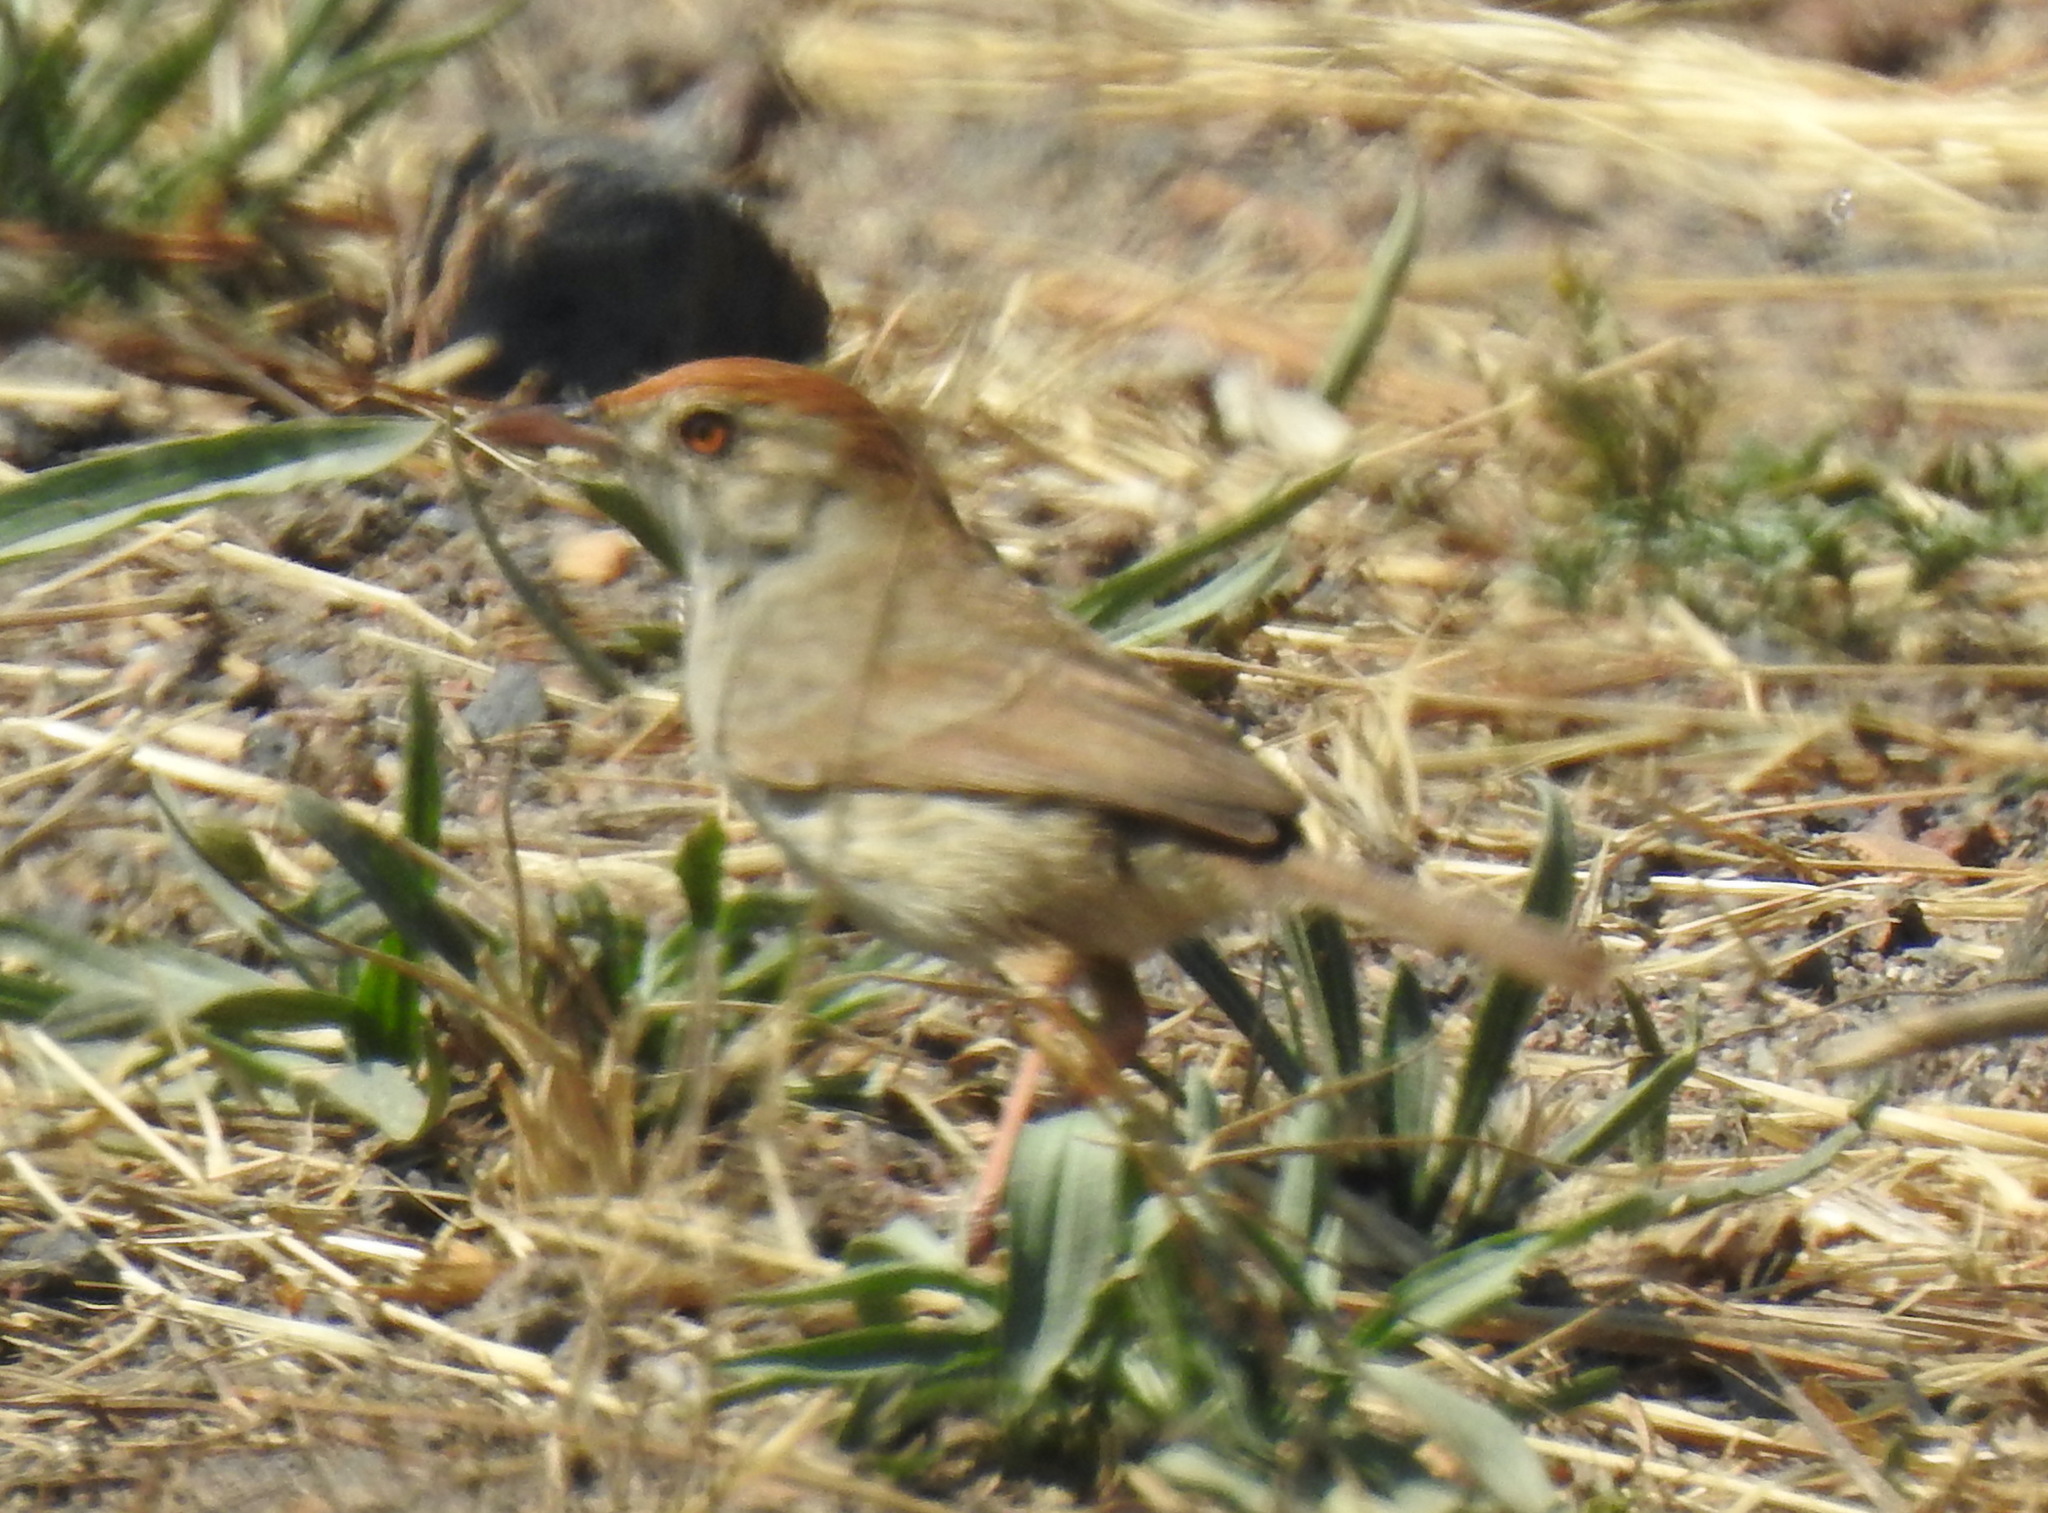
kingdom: Animalia
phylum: Chordata
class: Aves
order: Passeriformes
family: Cisticolidae
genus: Cisticola
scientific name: Cisticola fulvicapilla
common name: Neddicky
